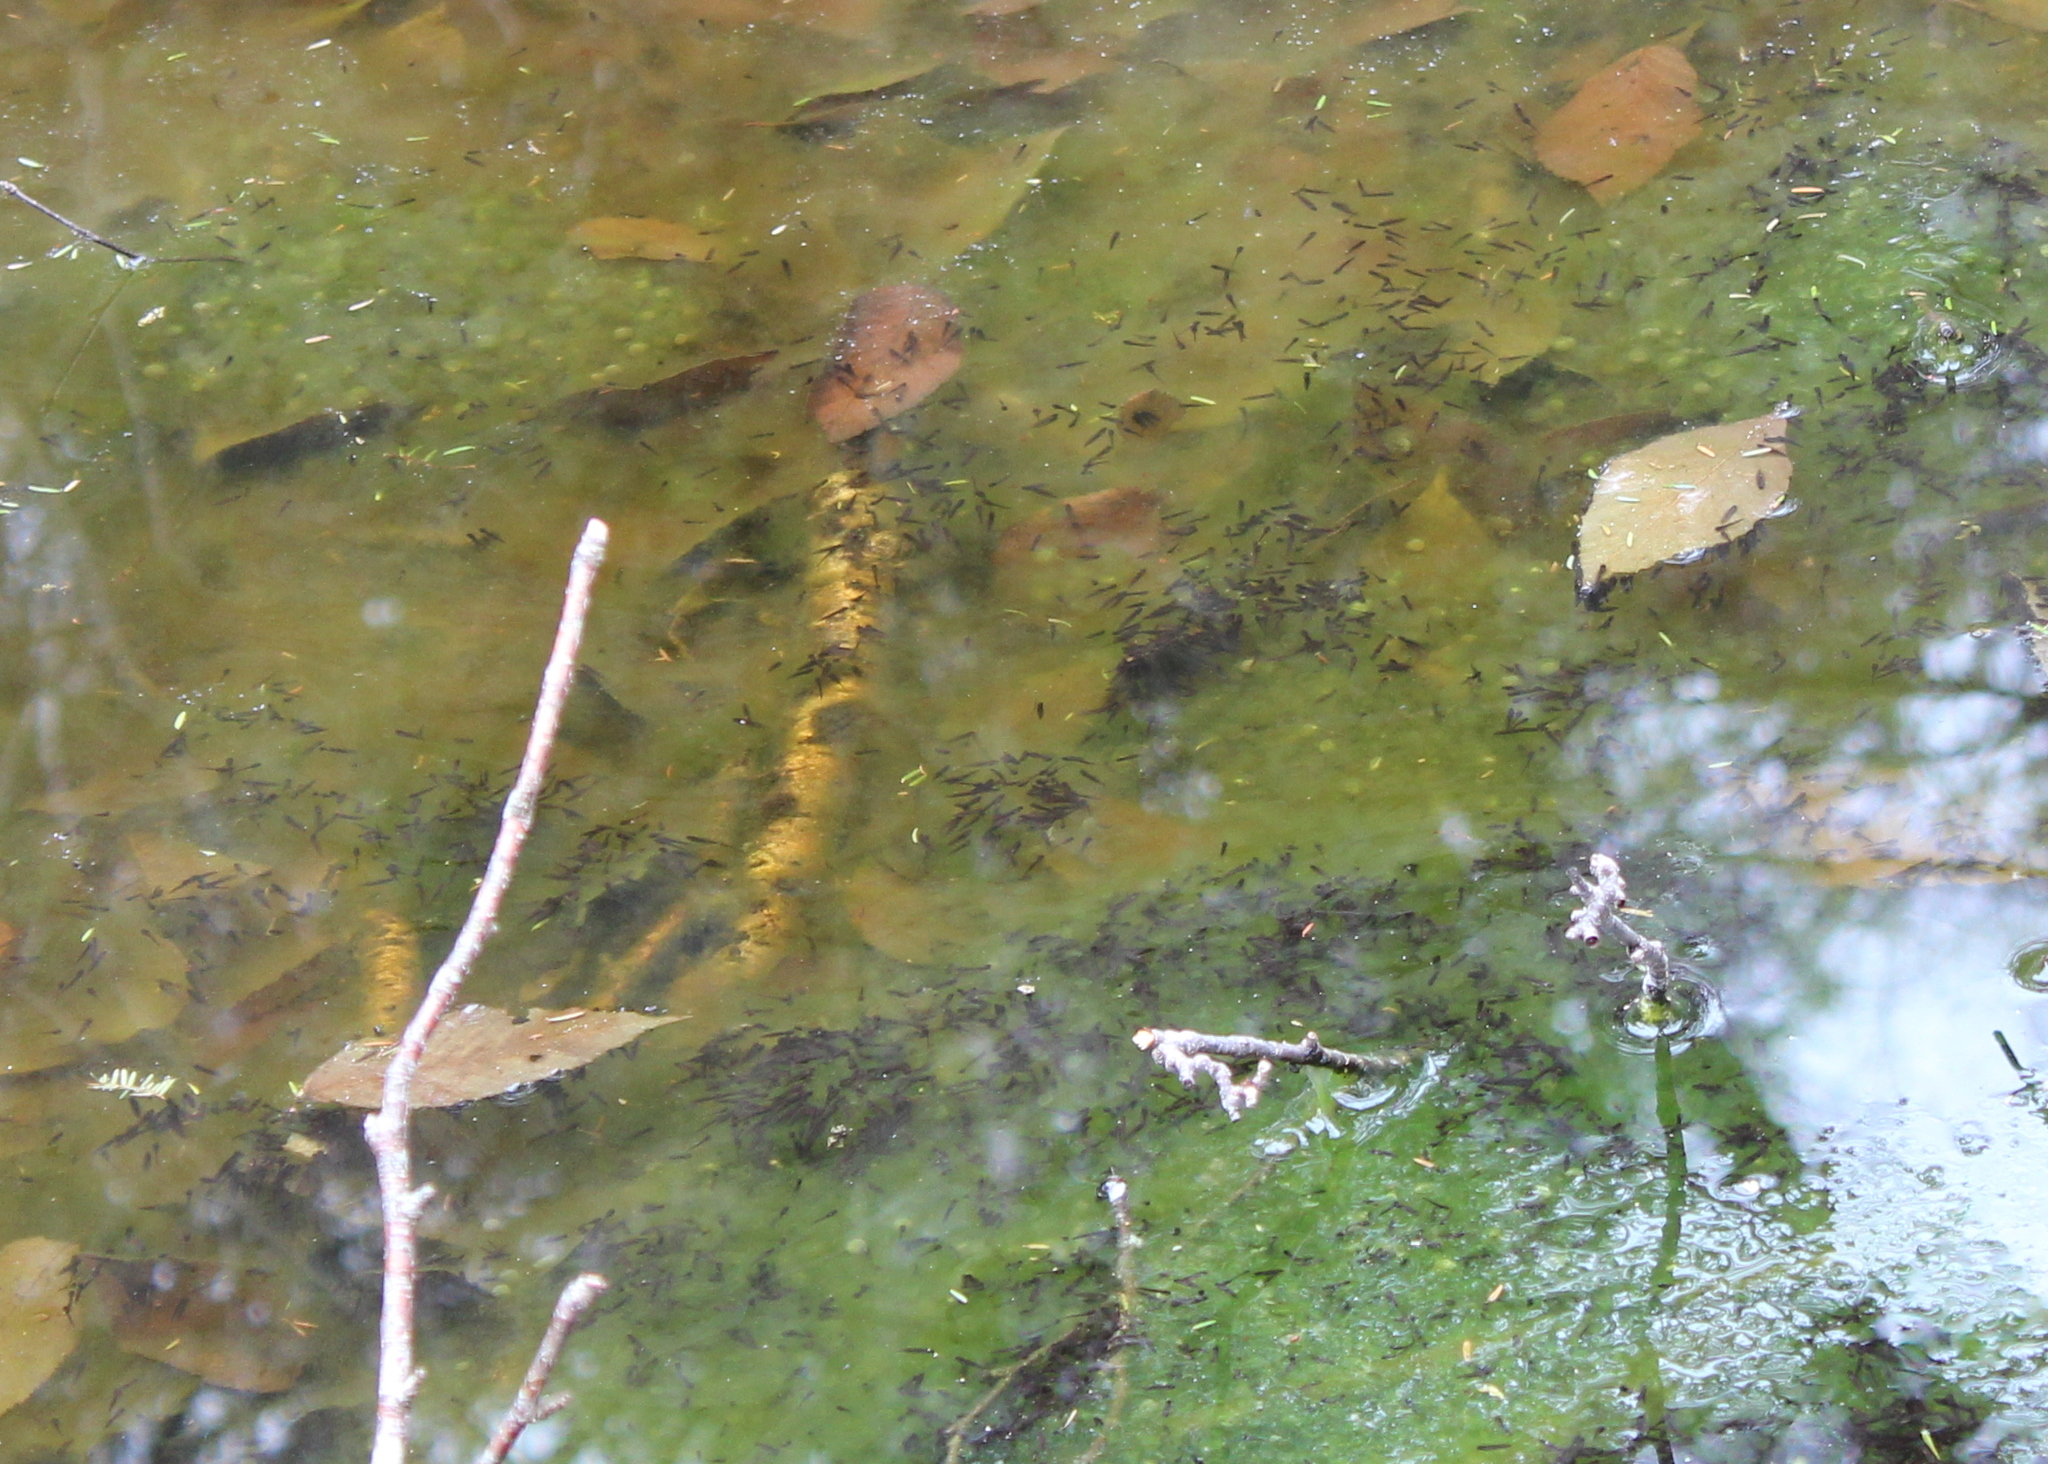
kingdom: Animalia
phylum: Chordata
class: Amphibia
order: Anura
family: Ranidae
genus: Lithobates
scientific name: Lithobates sylvaticus
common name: Wood frog
